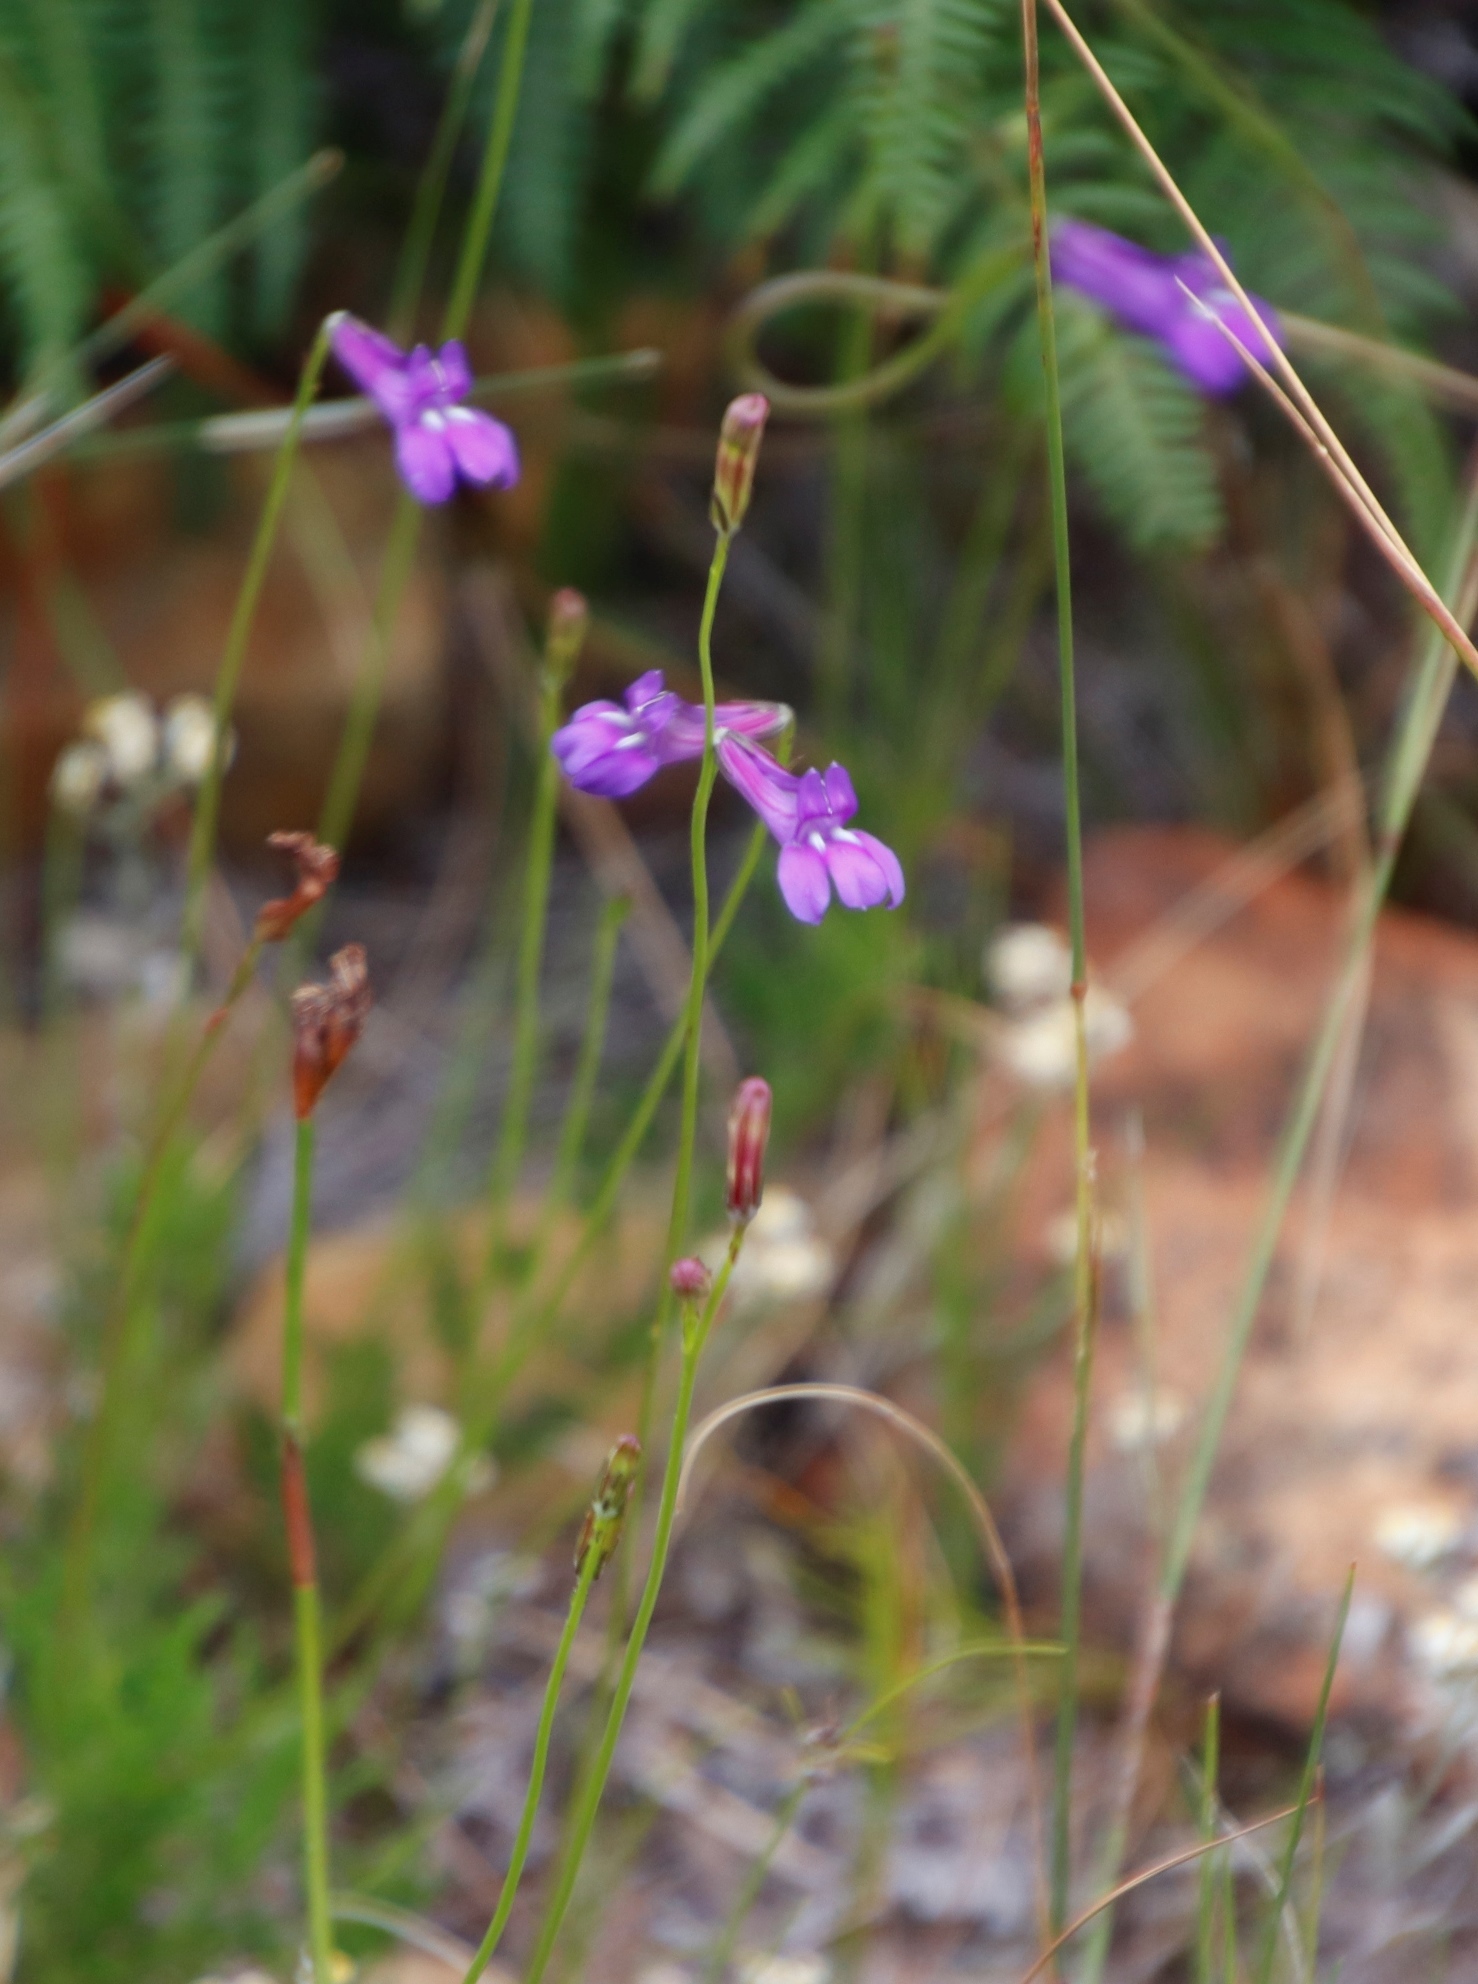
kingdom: Plantae
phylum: Tracheophyta
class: Magnoliopsida
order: Asterales
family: Campanulaceae
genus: Lobelia
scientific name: Lobelia coronopifolia
